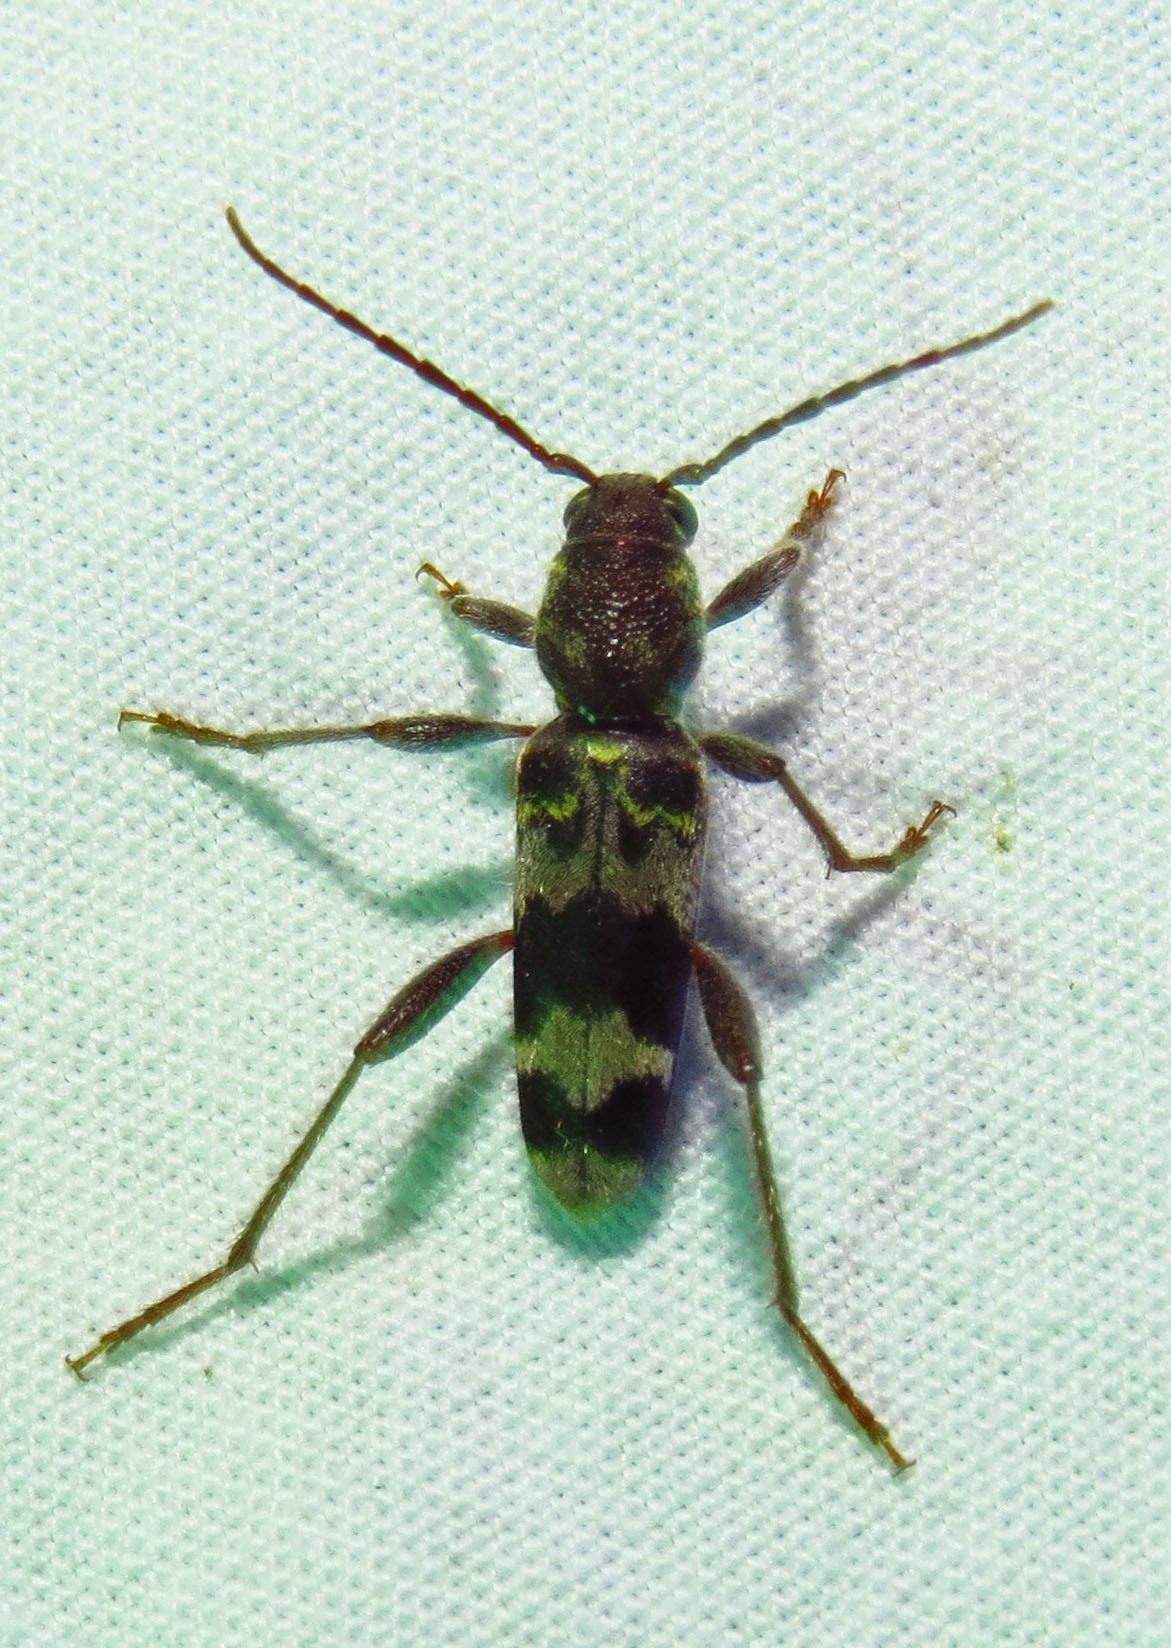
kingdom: Animalia
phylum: Arthropoda
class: Insecta
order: Coleoptera
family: Cerambycidae
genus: Xylotrechus
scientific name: Xylotrechus colonus
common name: Long-horned beetle
